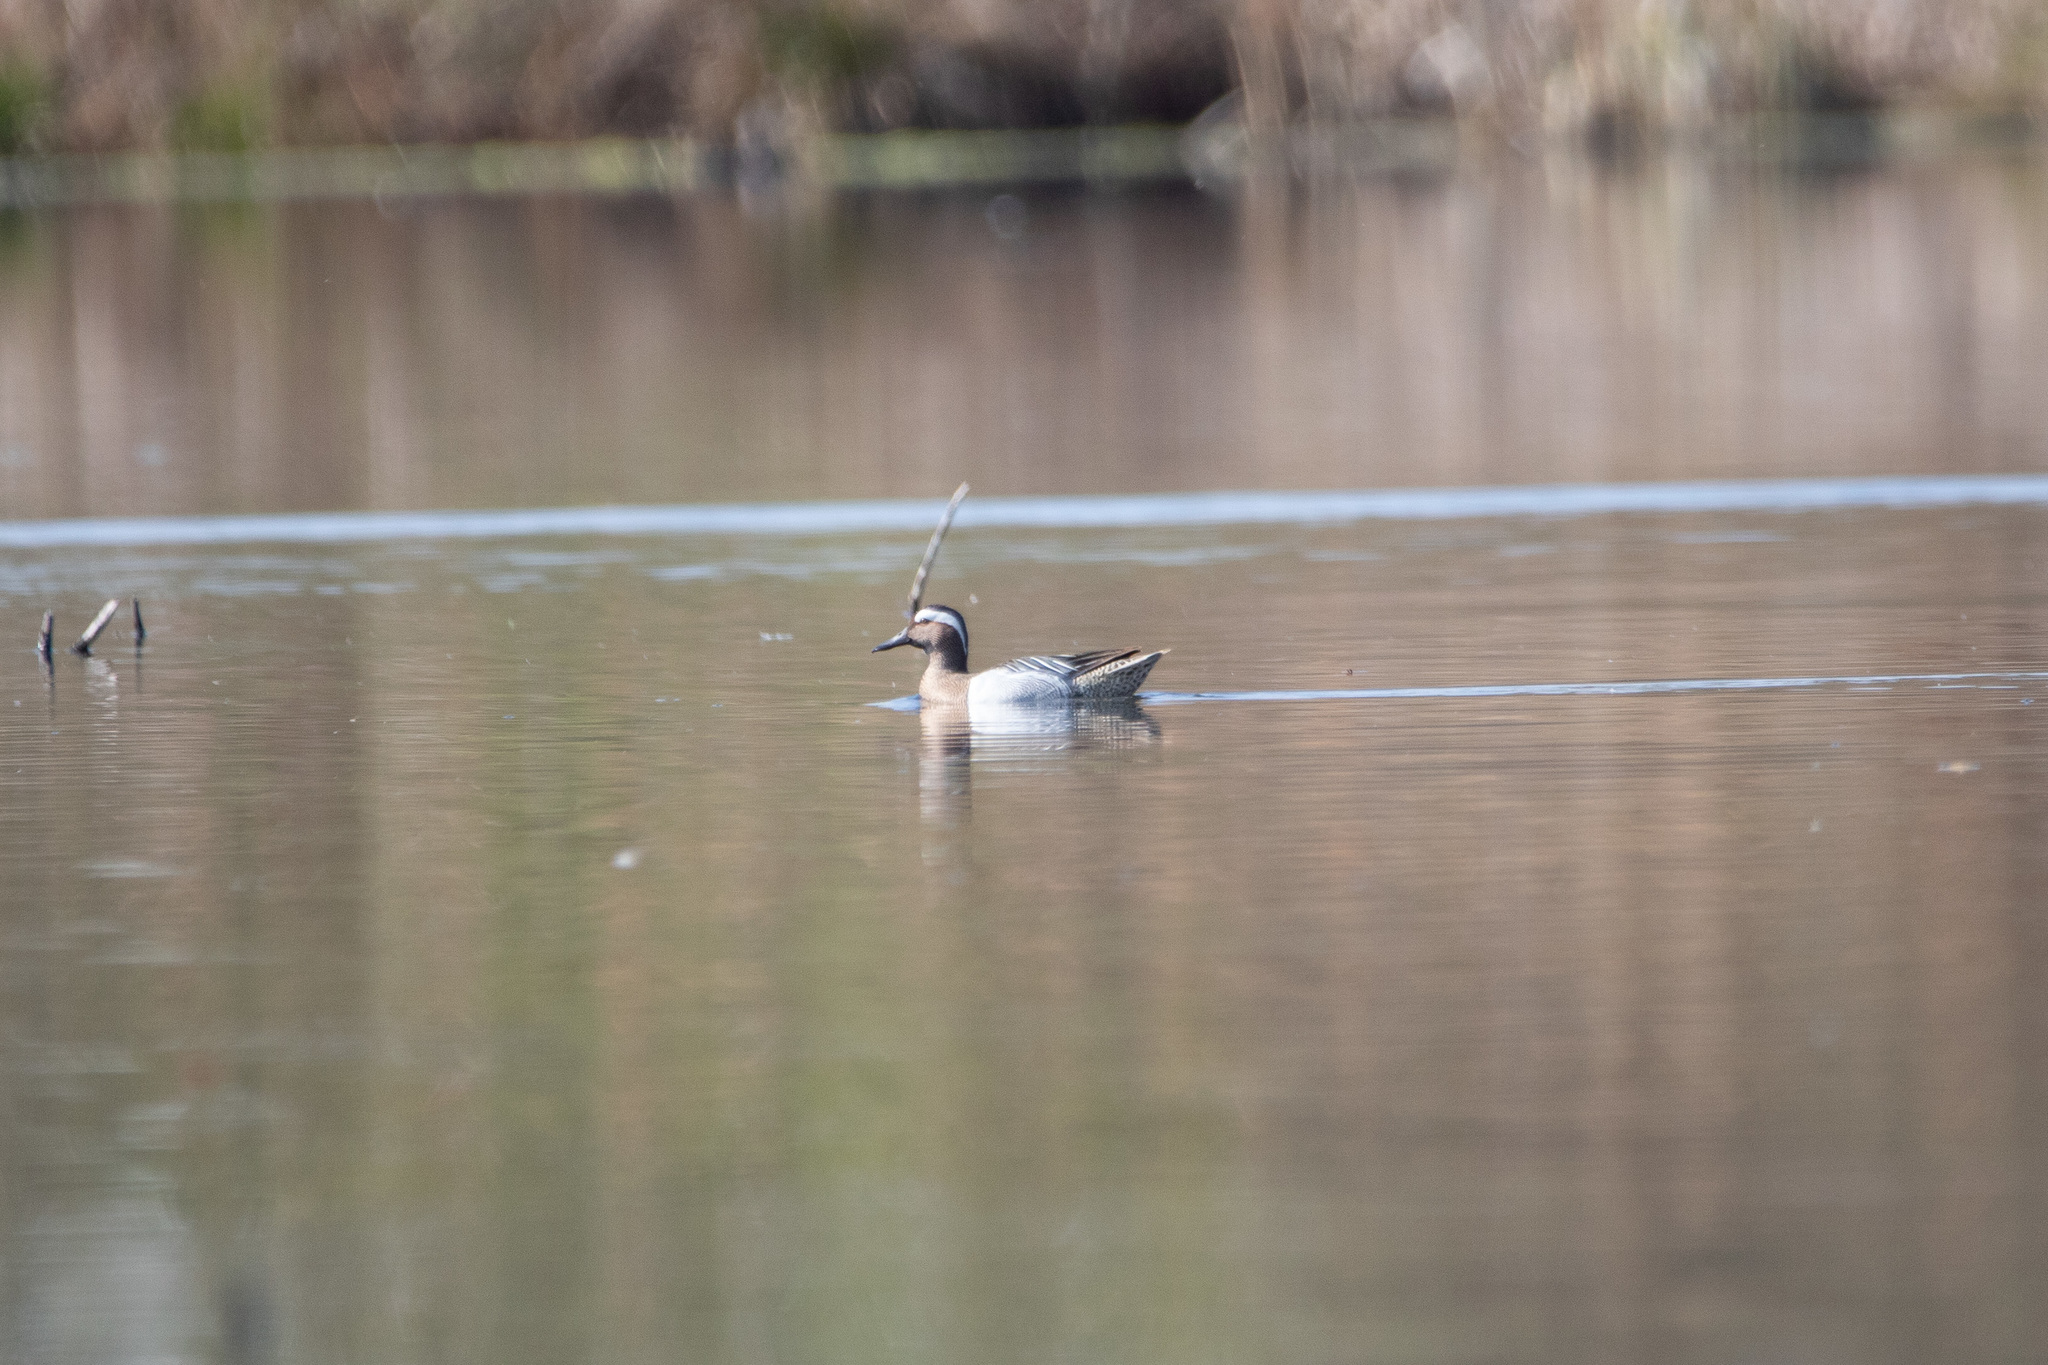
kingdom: Animalia
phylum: Chordata
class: Aves
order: Anseriformes
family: Anatidae
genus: Spatula
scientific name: Spatula querquedula
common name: Garganey
